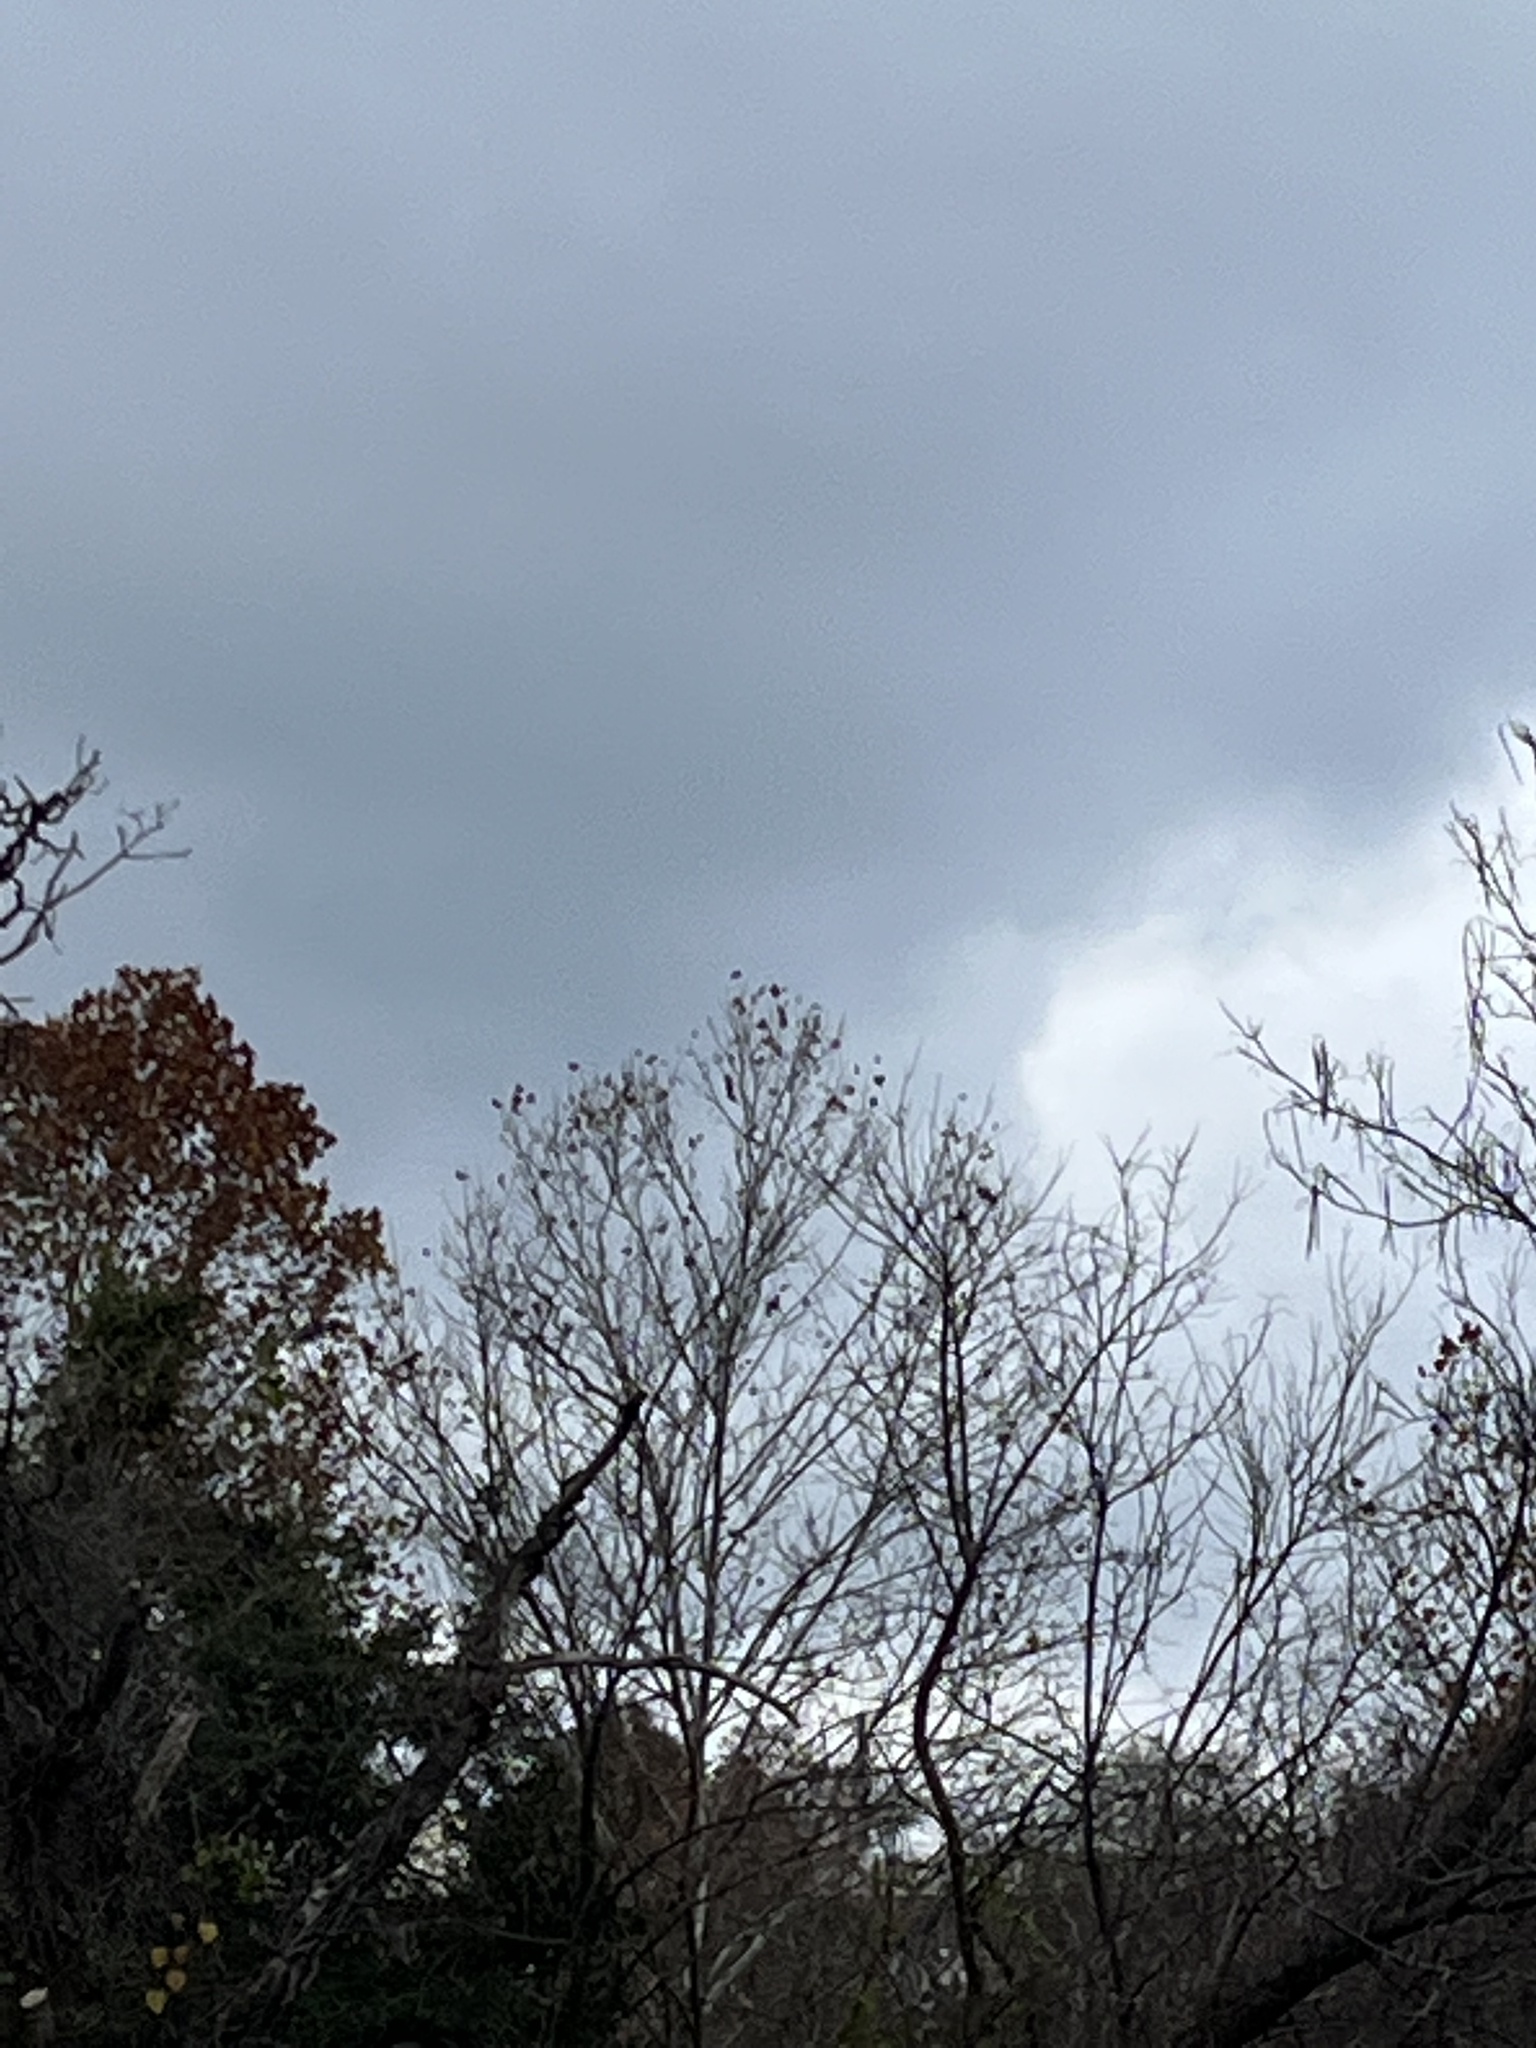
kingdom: Animalia
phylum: Chordata
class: Aves
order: Coraciiformes
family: Alcedinidae
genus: Megaceryle
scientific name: Megaceryle alcyon
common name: Belted kingfisher
